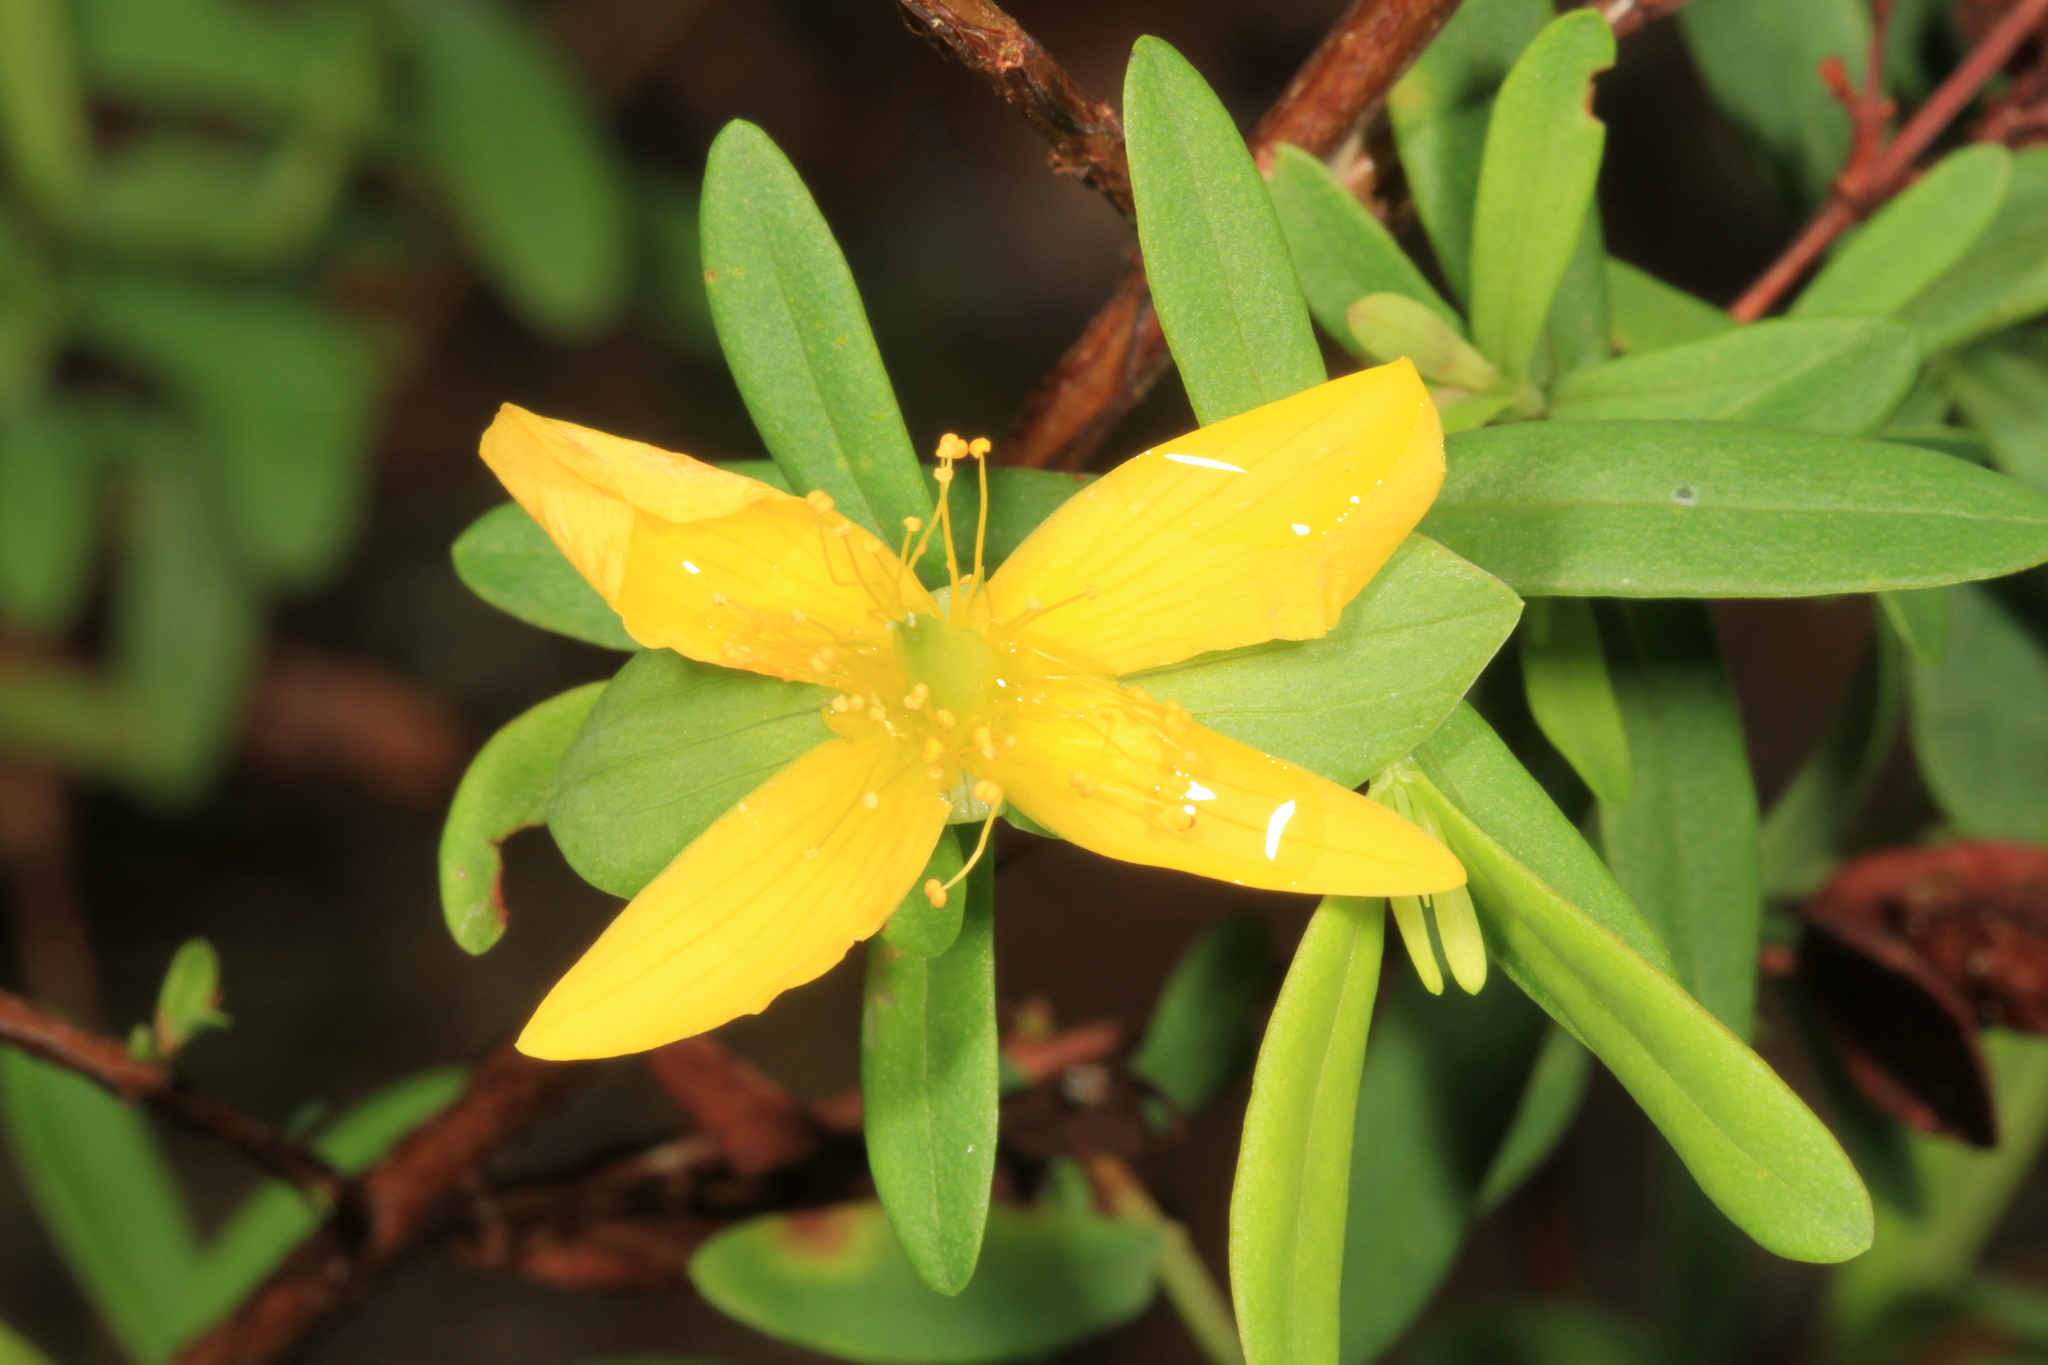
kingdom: Plantae
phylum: Tracheophyta
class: Magnoliopsida
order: Malpighiales
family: Hypericaceae
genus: Hypericum
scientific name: Hypericum hypericoides
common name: St. andrew's cross
